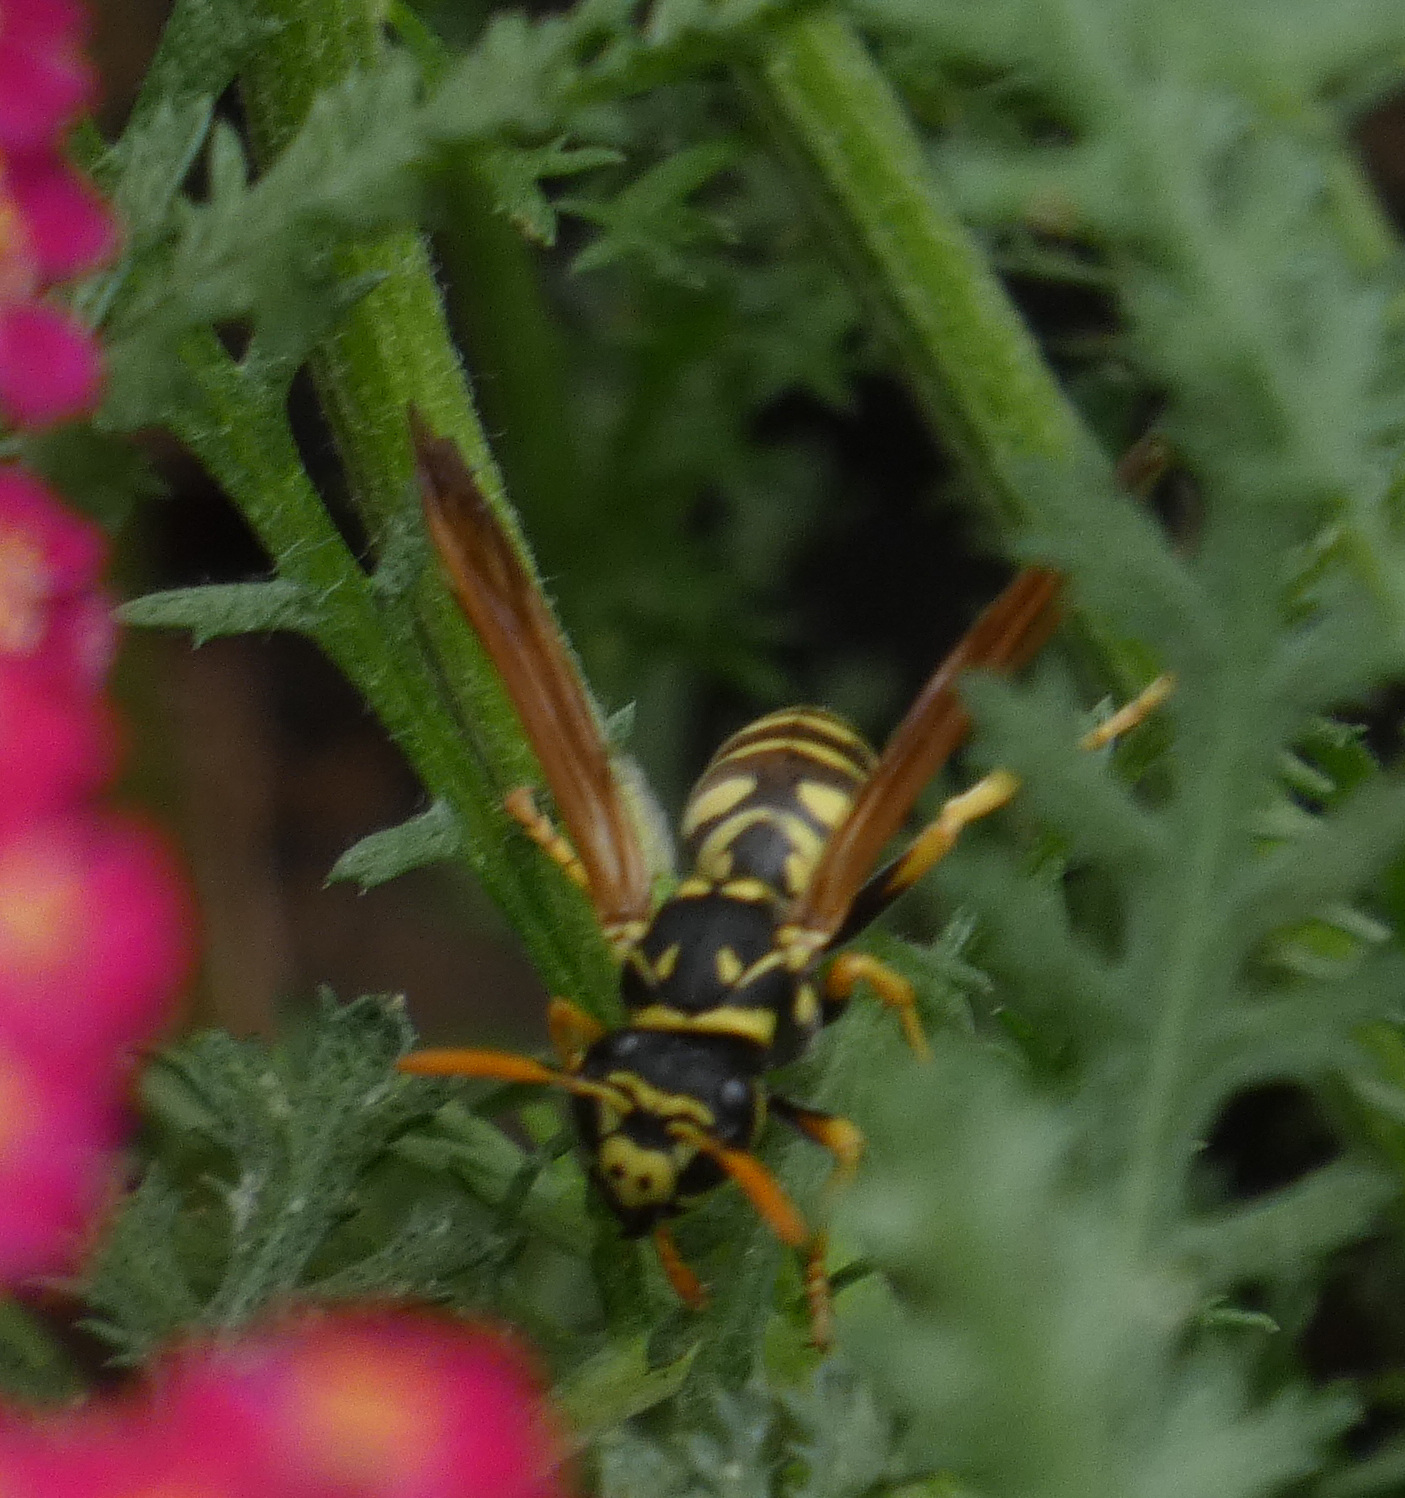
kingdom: Animalia
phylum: Arthropoda
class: Insecta
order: Hymenoptera
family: Eumenidae
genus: Polistes
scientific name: Polistes dominula
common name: Paper wasp
